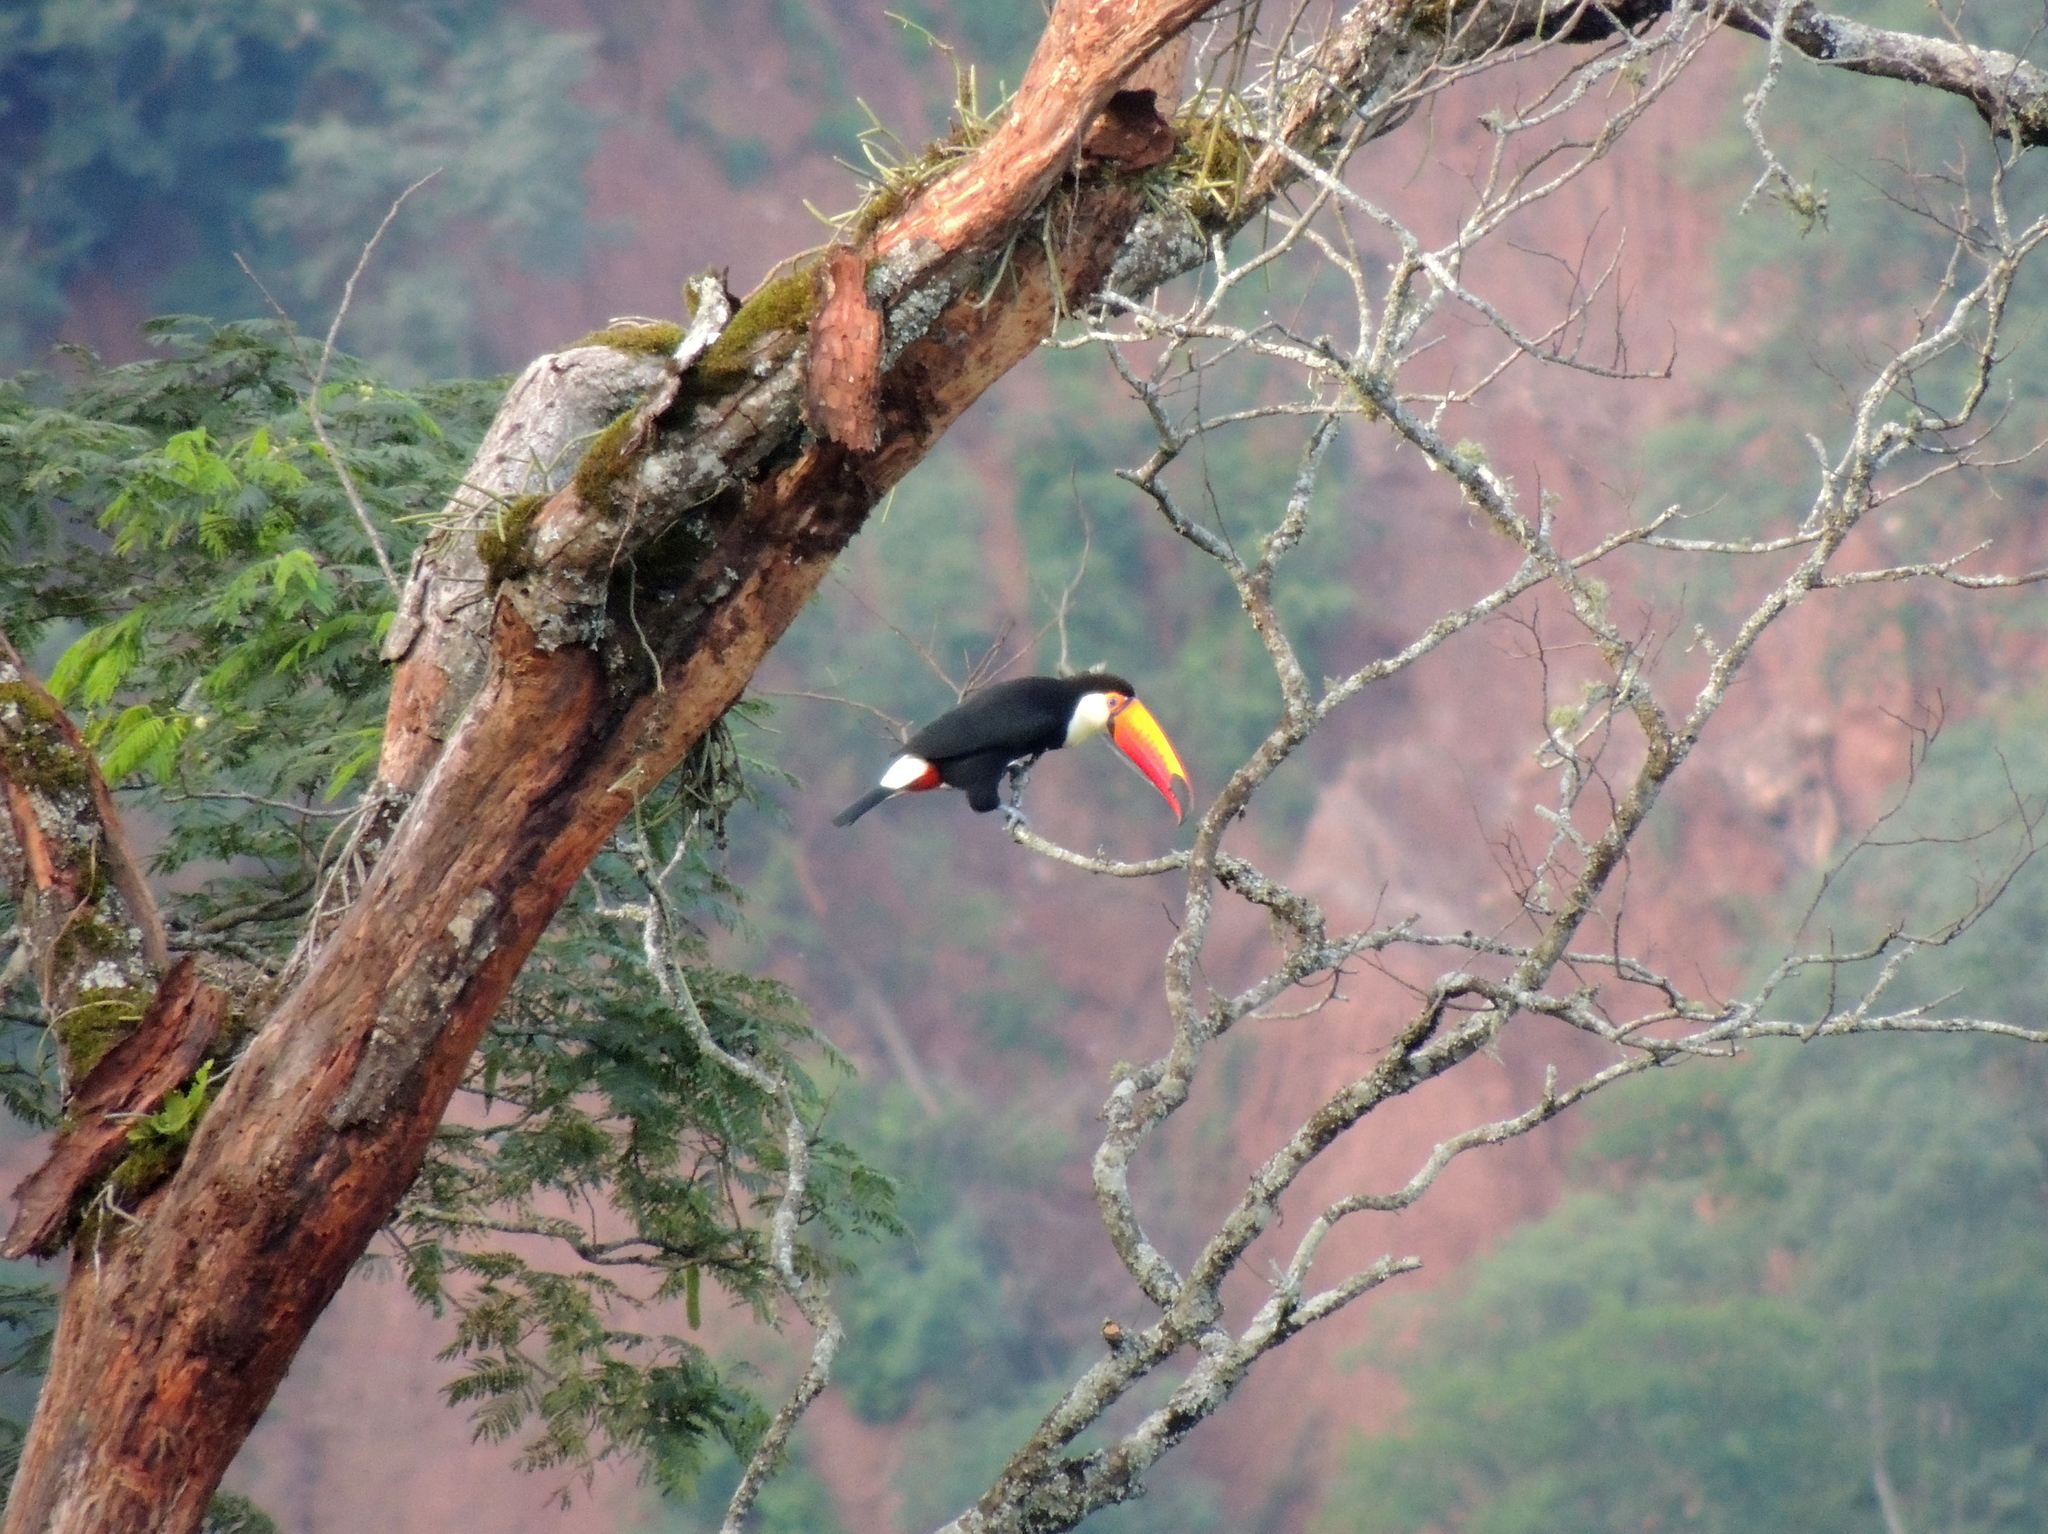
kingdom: Animalia
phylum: Chordata
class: Aves
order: Piciformes
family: Ramphastidae
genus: Ramphastos
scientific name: Ramphastos toco
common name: Toco toucan
